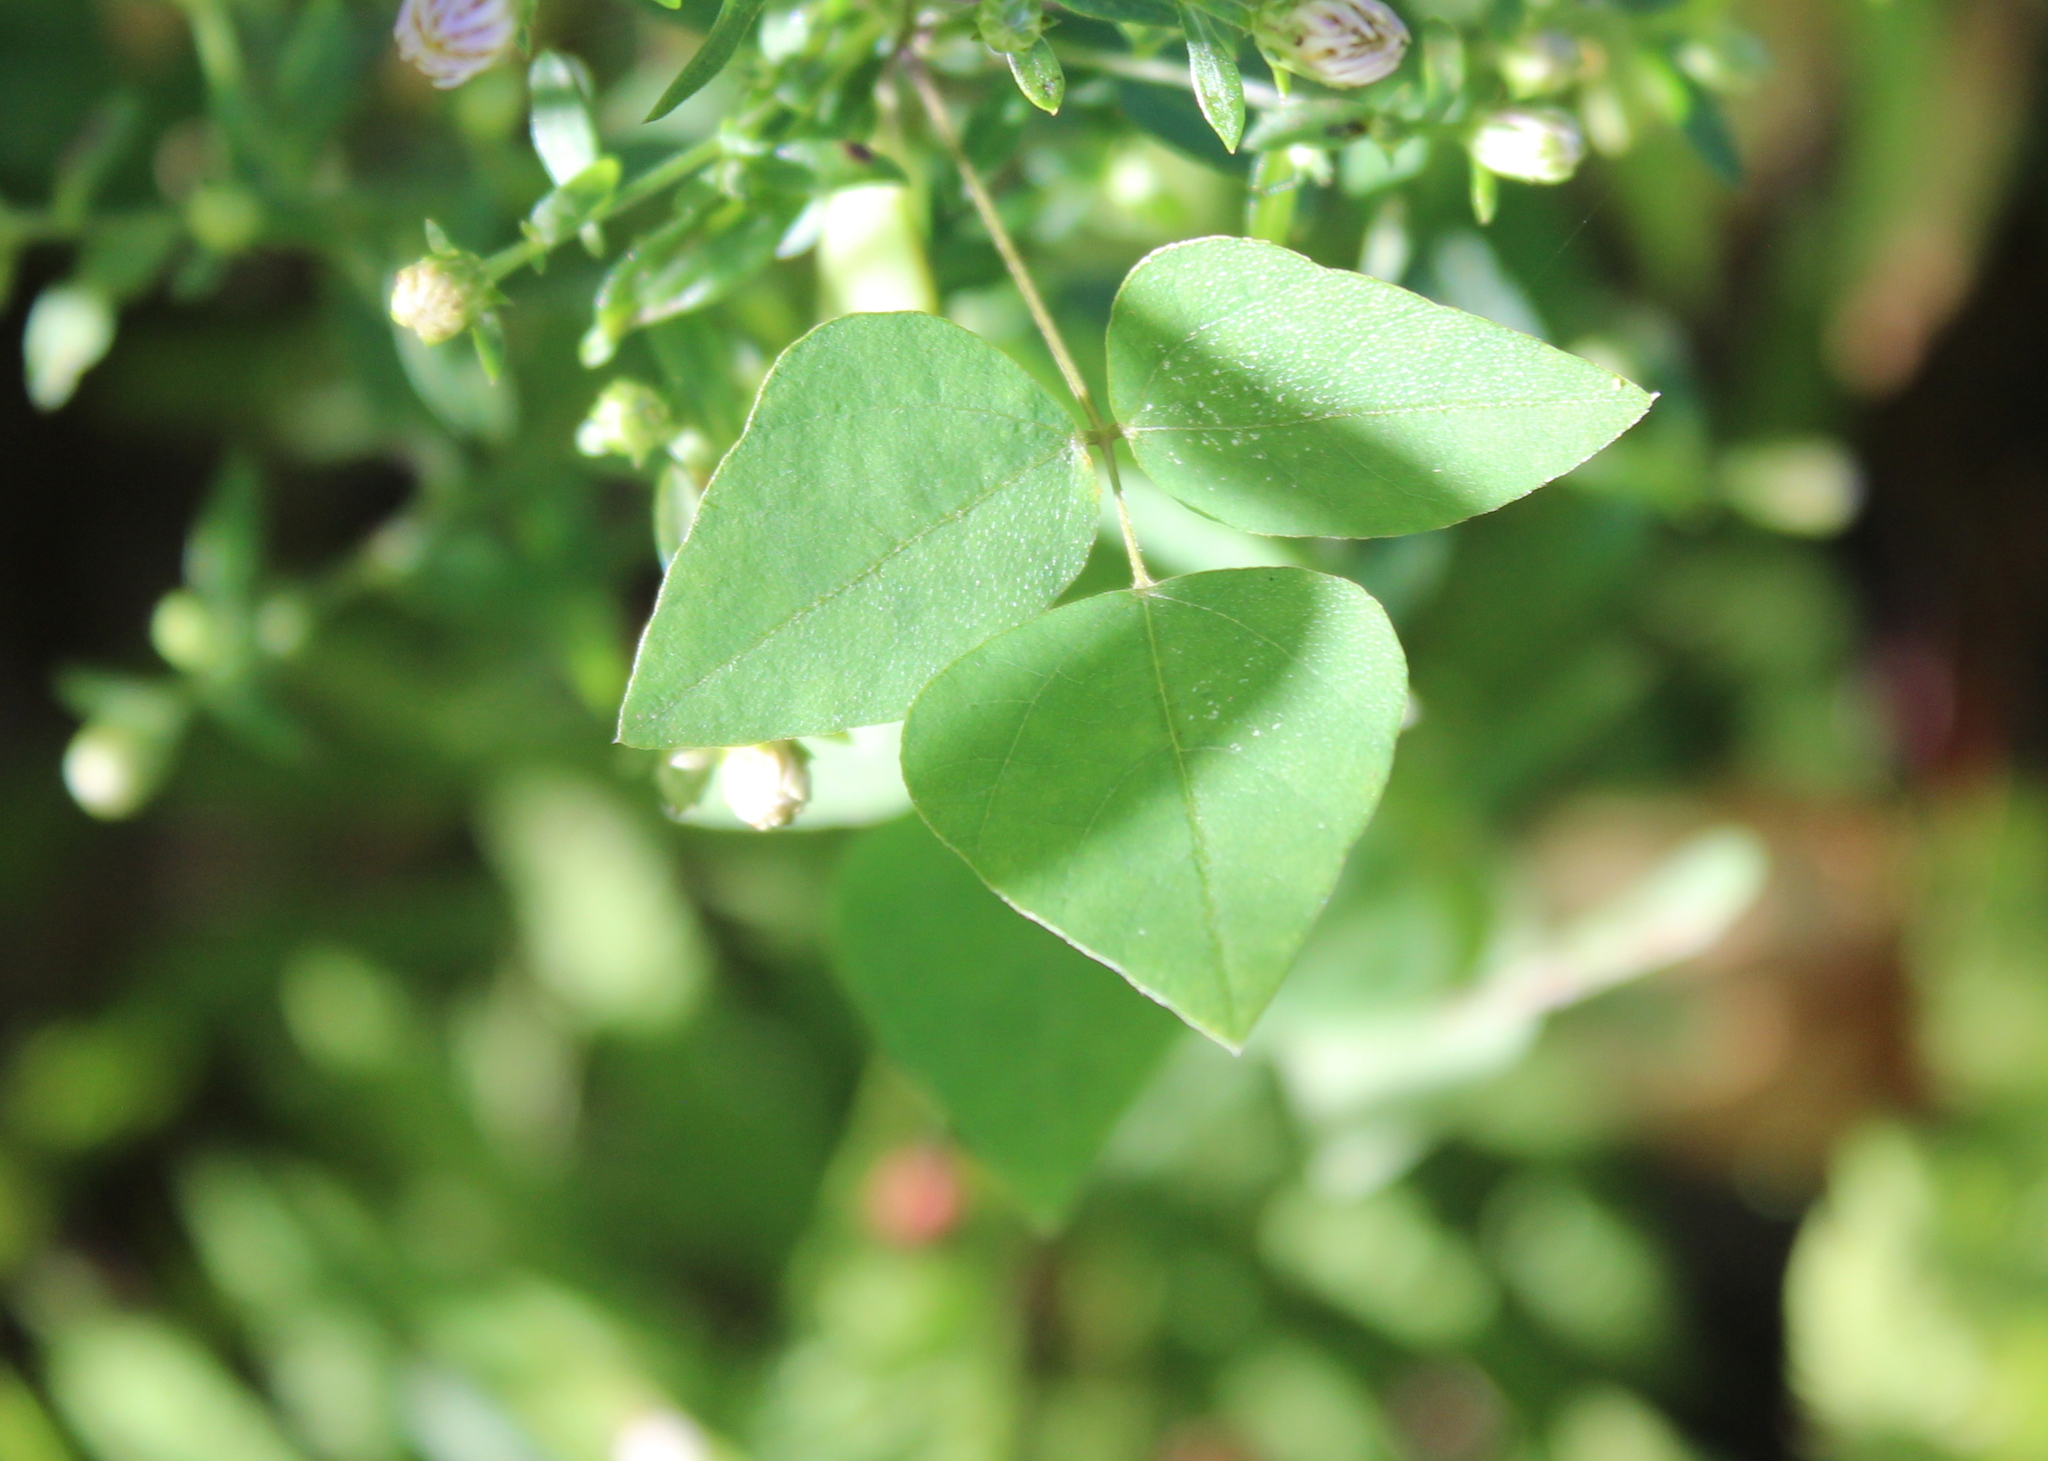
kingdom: Plantae
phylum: Tracheophyta
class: Magnoliopsida
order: Fabales
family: Fabaceae
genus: Amphicarpaea
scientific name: Amphicarpaea bracteata
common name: American hog peanut
